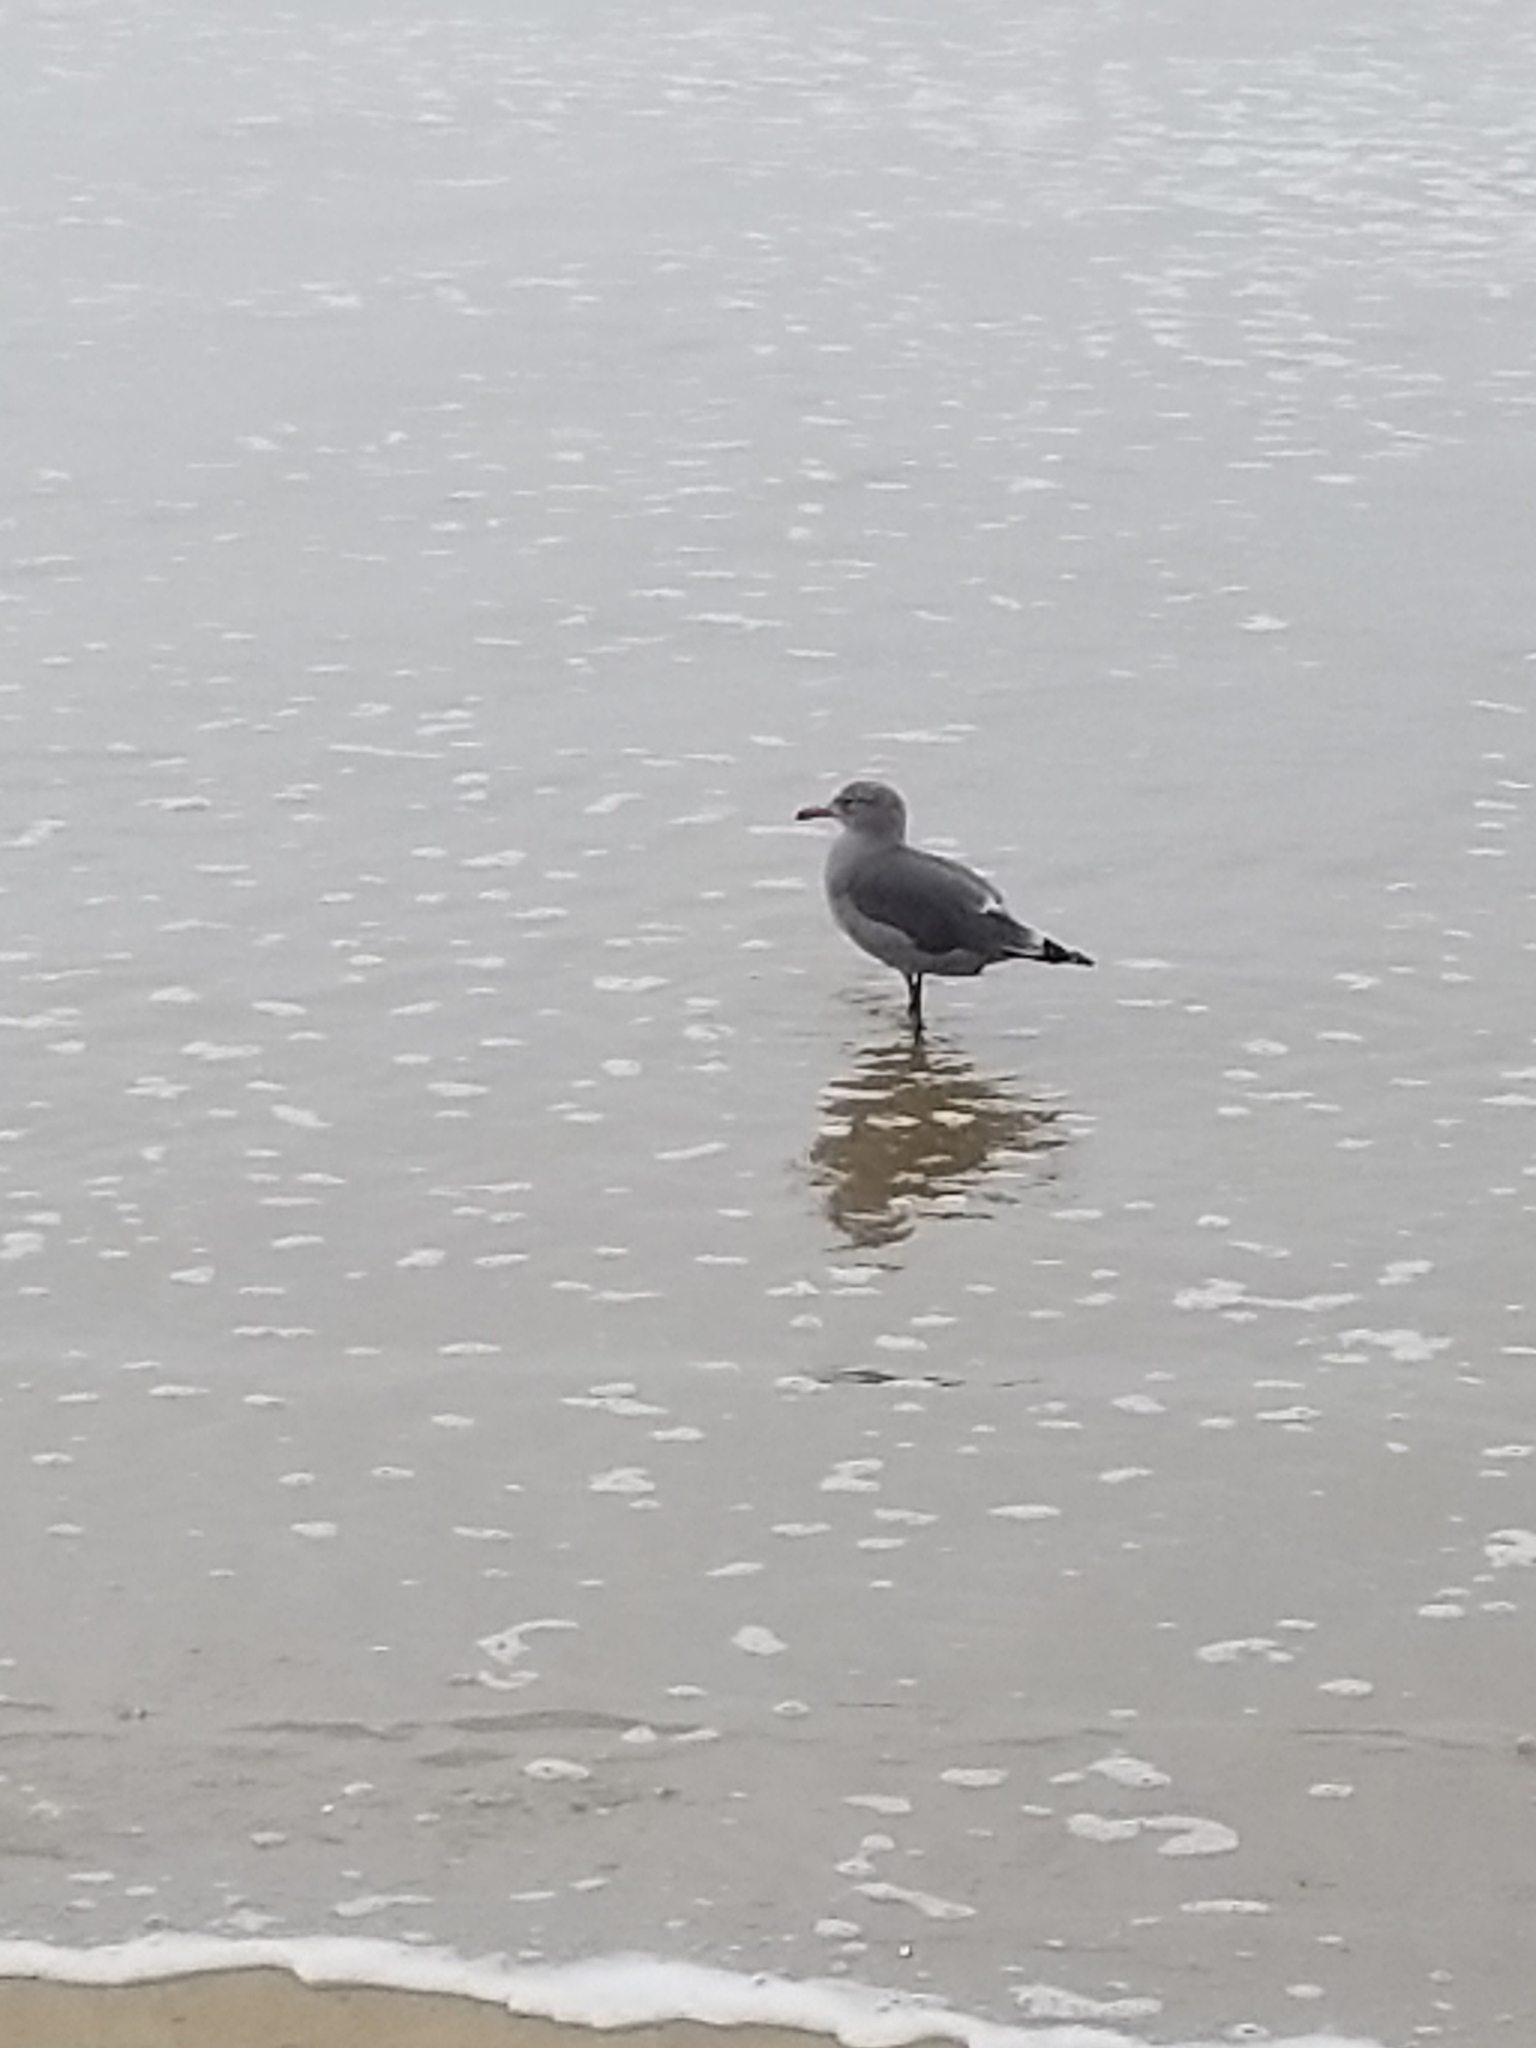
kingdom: Animalia
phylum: Chordata
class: Aves
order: Charadriiformes
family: Laridae
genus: Larus
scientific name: Larus heermanni
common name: Heermann's gull
